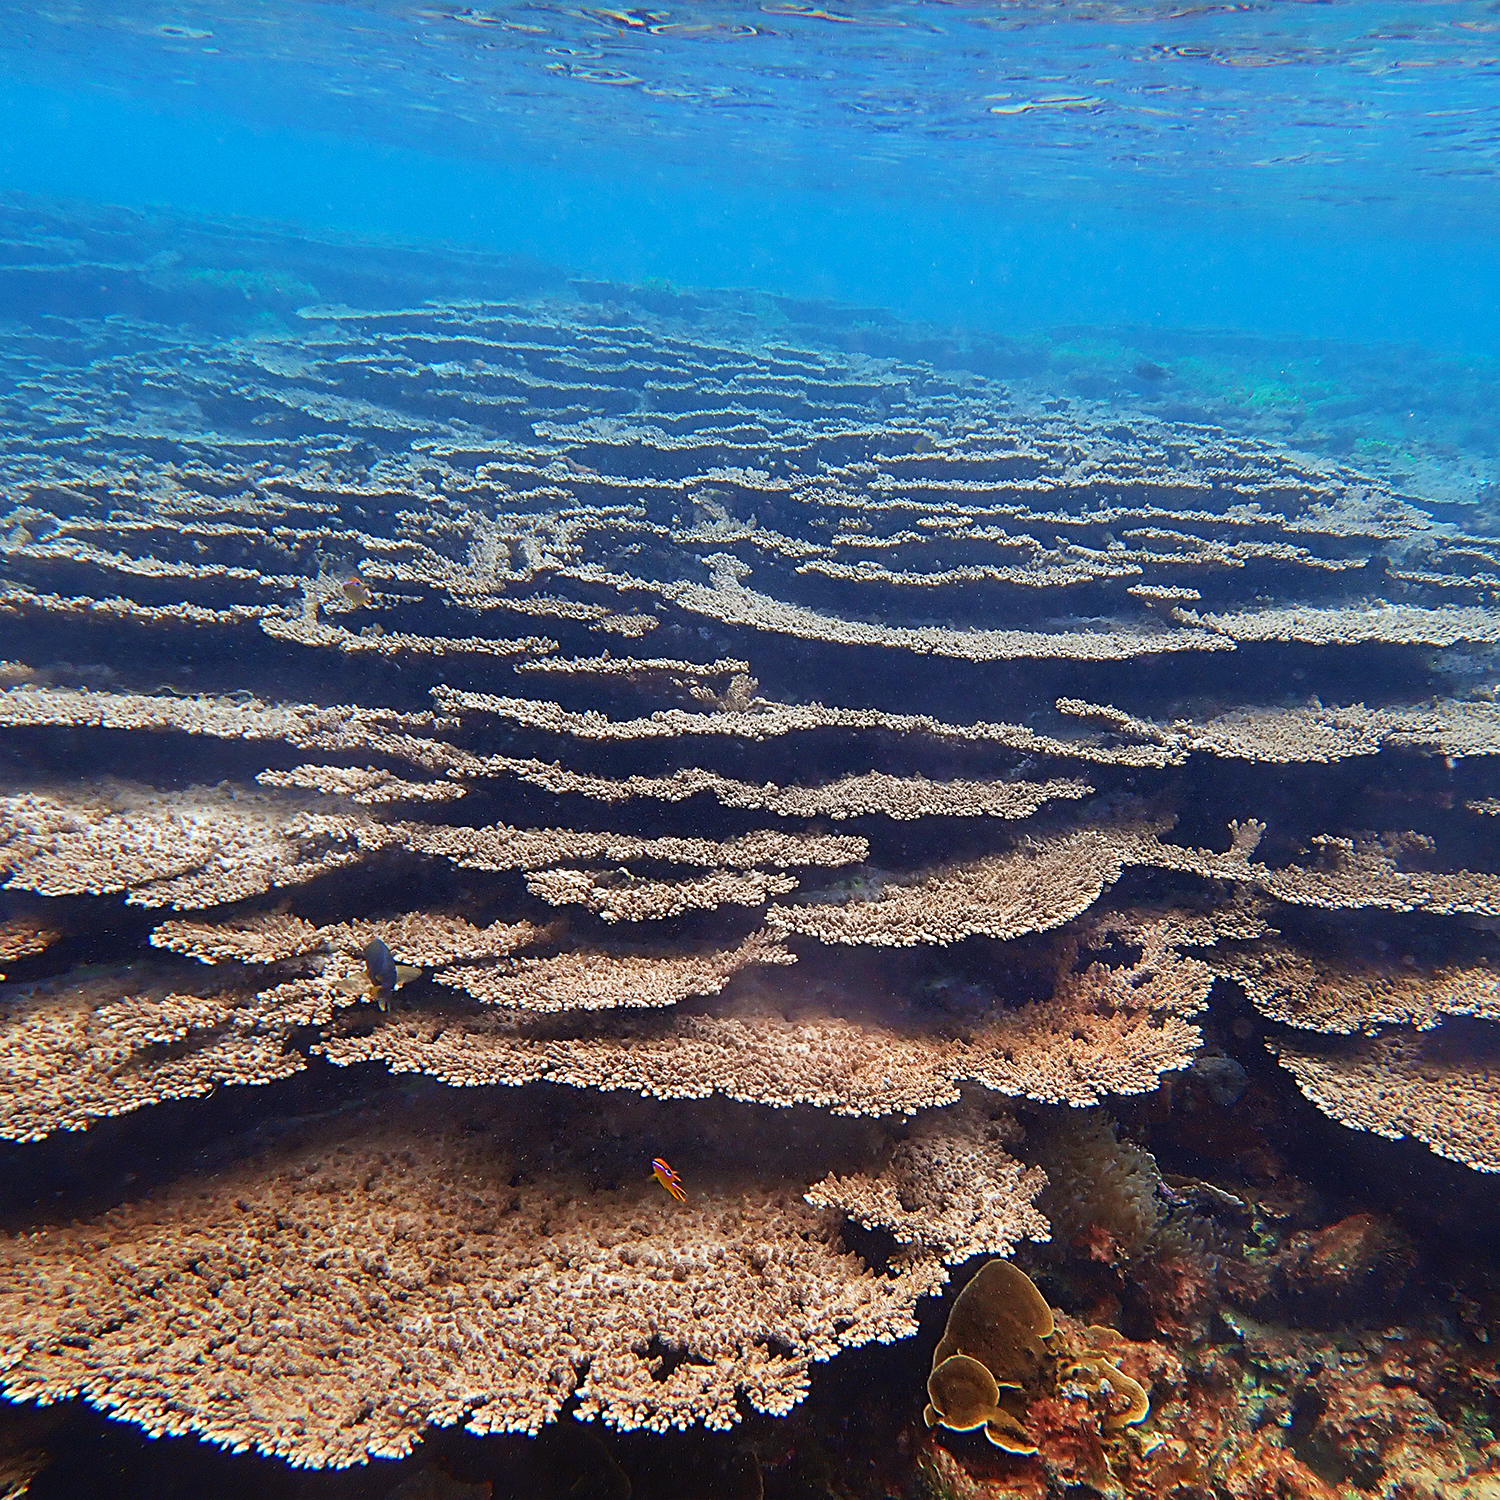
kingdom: Animalia
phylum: Cnidaria
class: Anthozoa
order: Scleractinia
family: Acroporidae
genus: Acropora
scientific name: Acropora solitaryensis
